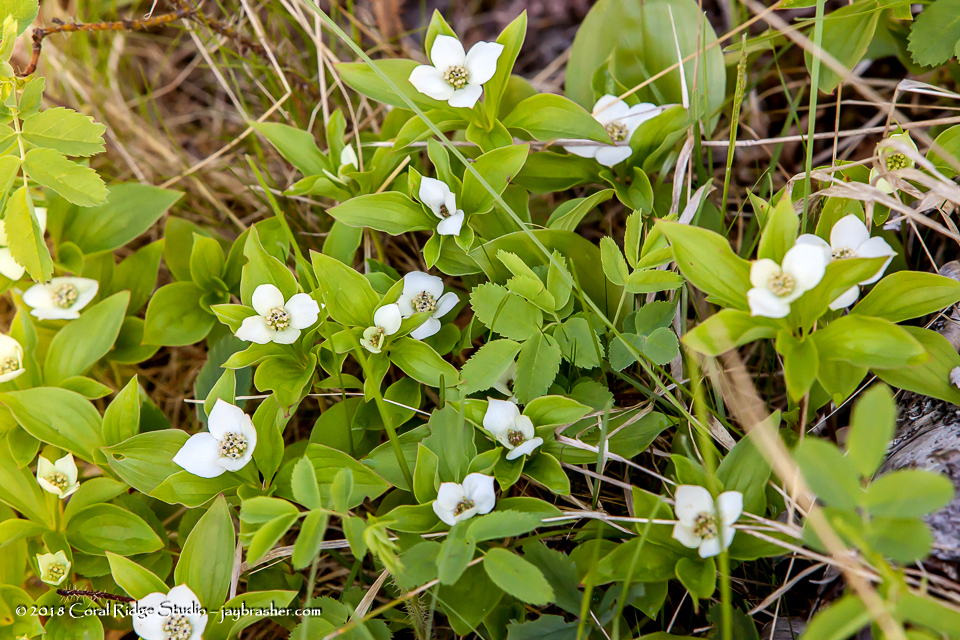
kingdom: Plantae
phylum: Tracheophyta
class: Magnoliopsida
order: Cornales
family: Cornaceae
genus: Cornus
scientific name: Cornus canadensis
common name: Creeping dogwood
